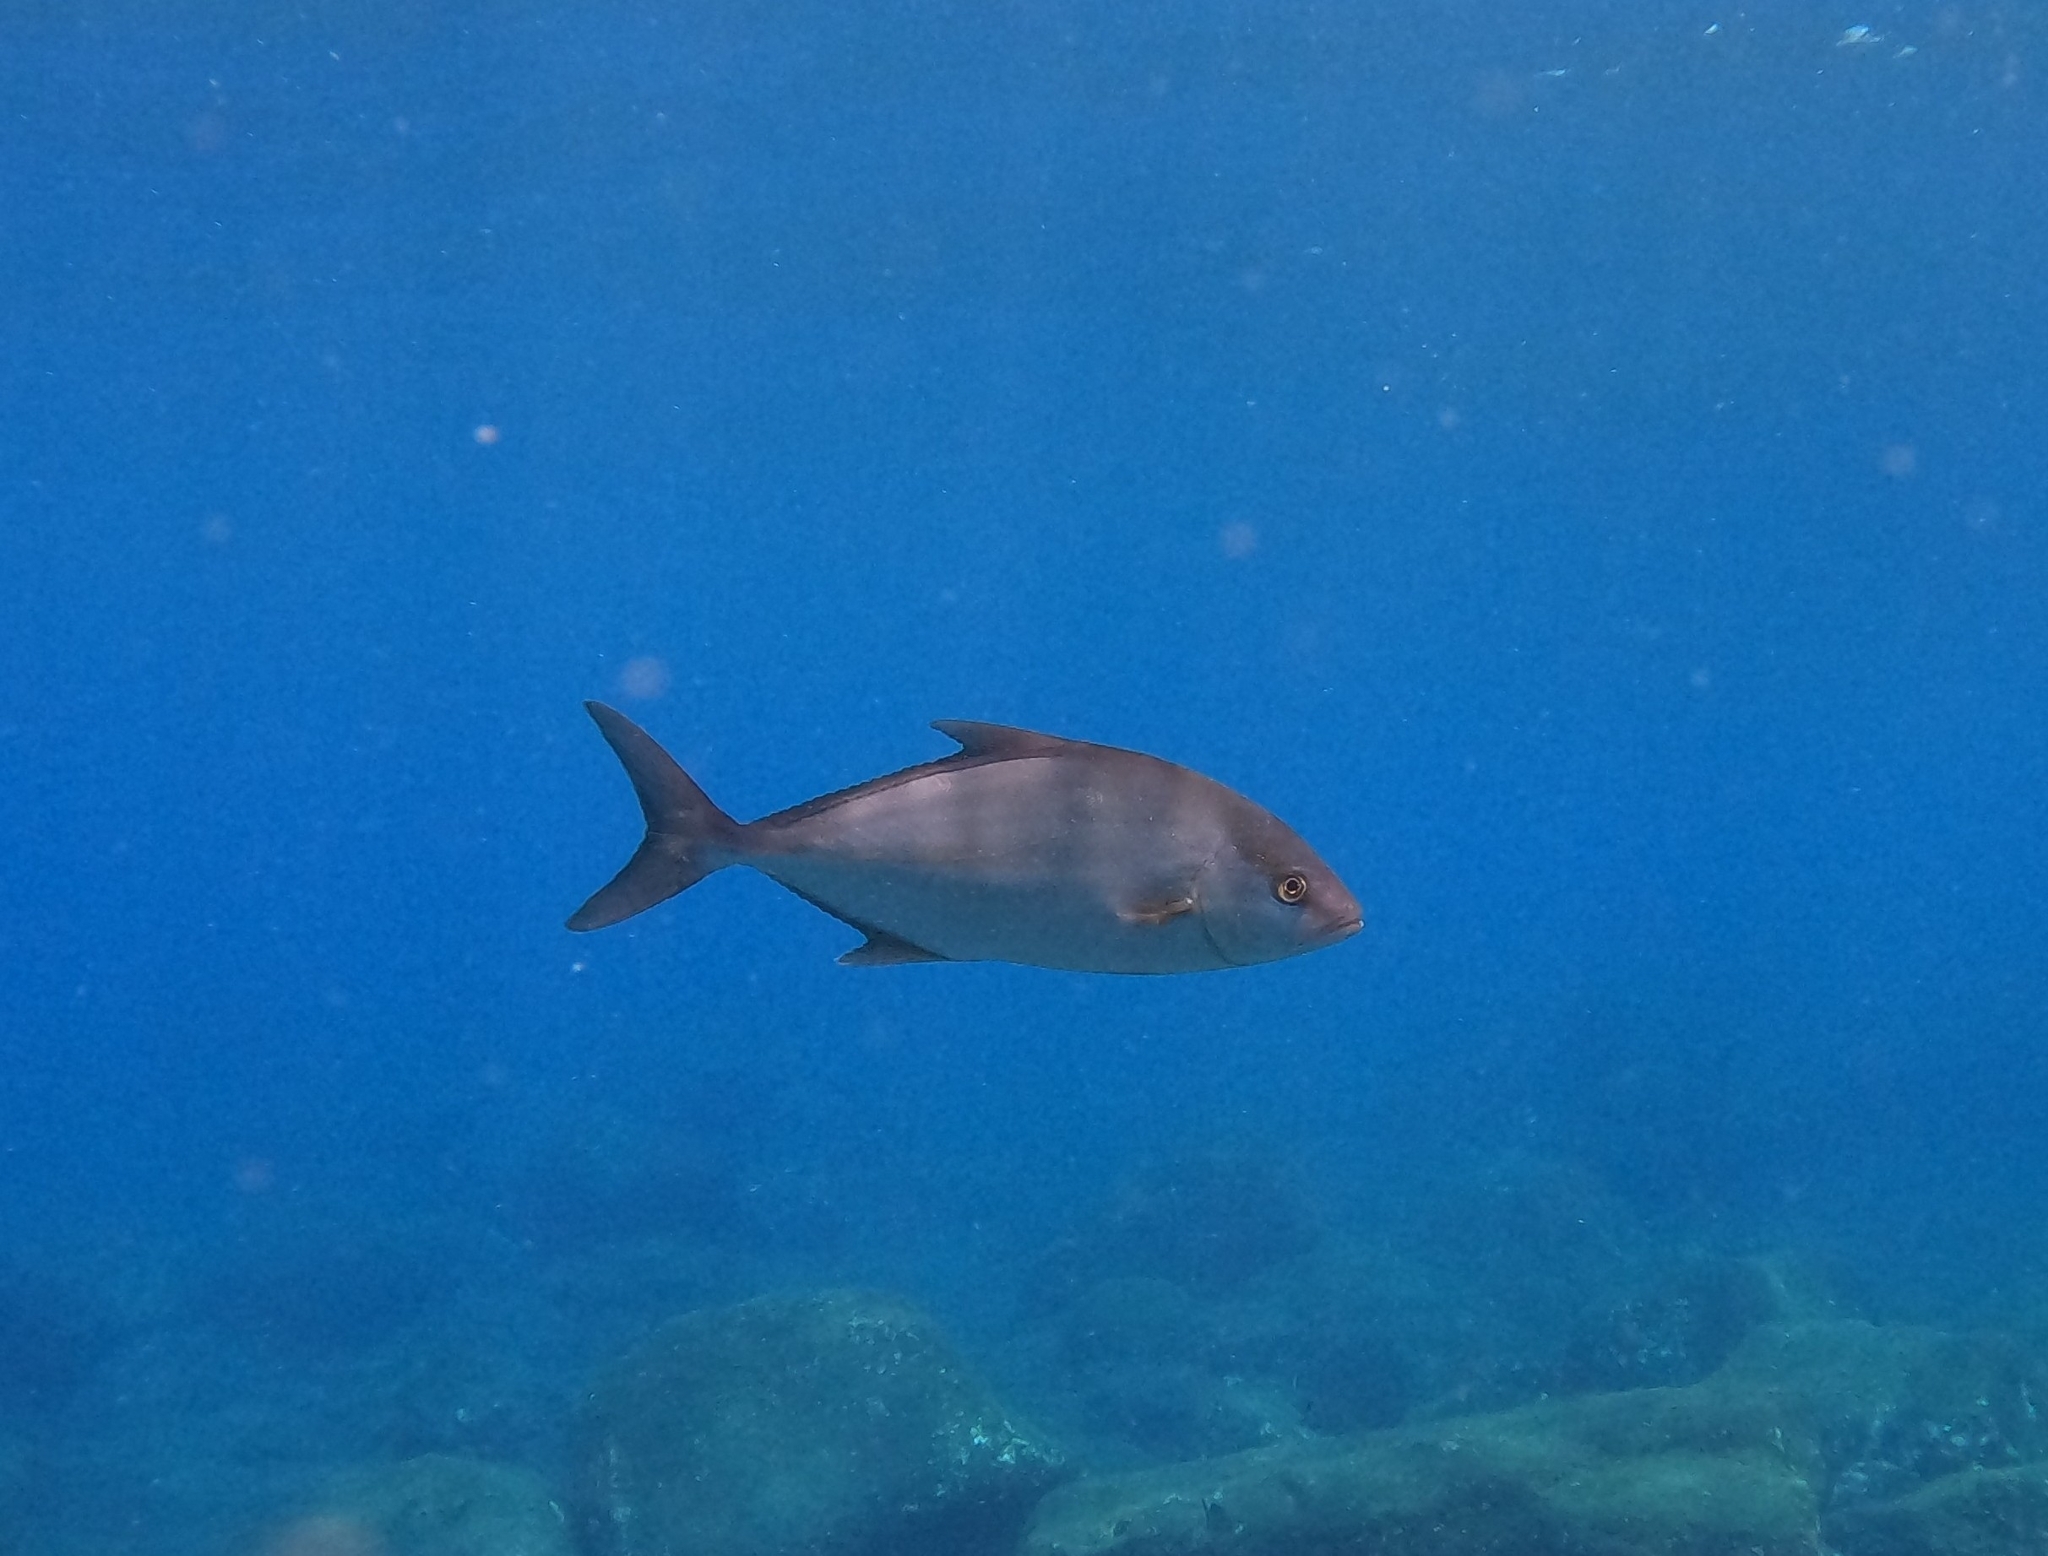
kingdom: Animalia
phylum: Chordata
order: Perciformes
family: Carangidae
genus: Seriola
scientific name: Seriola rivoliana
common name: Almaco jack
